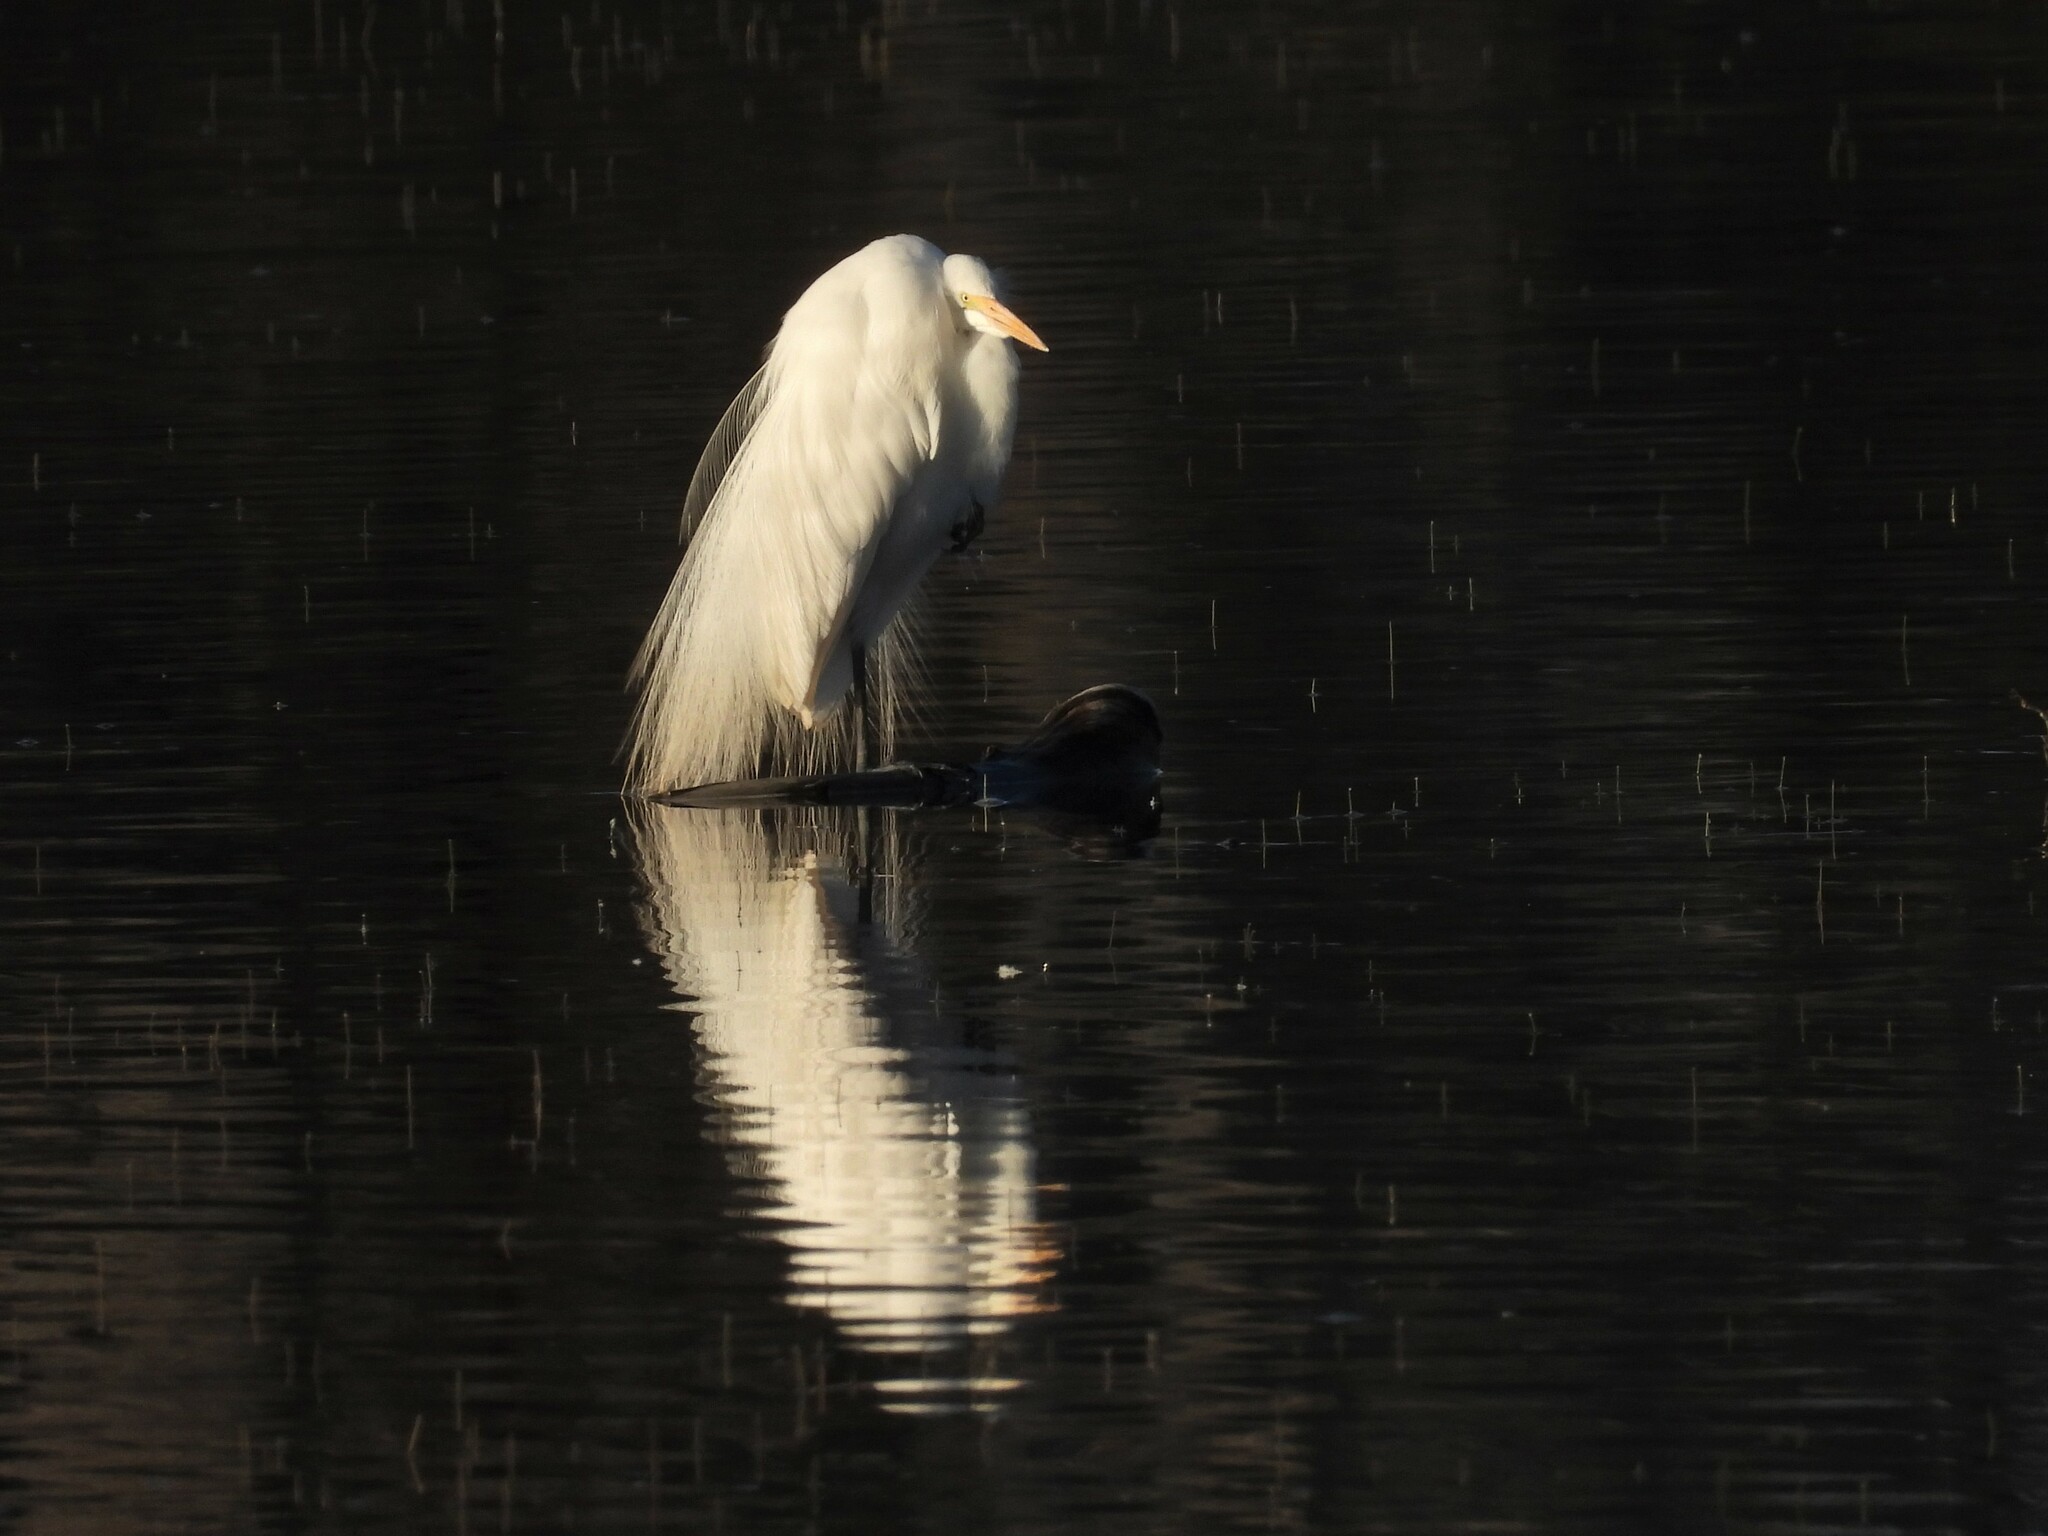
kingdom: Animalia
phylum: Chordata
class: Aves
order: Pelecaniformes
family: Ardeidae
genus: Ardea
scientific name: Ardea alba
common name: Great egret
